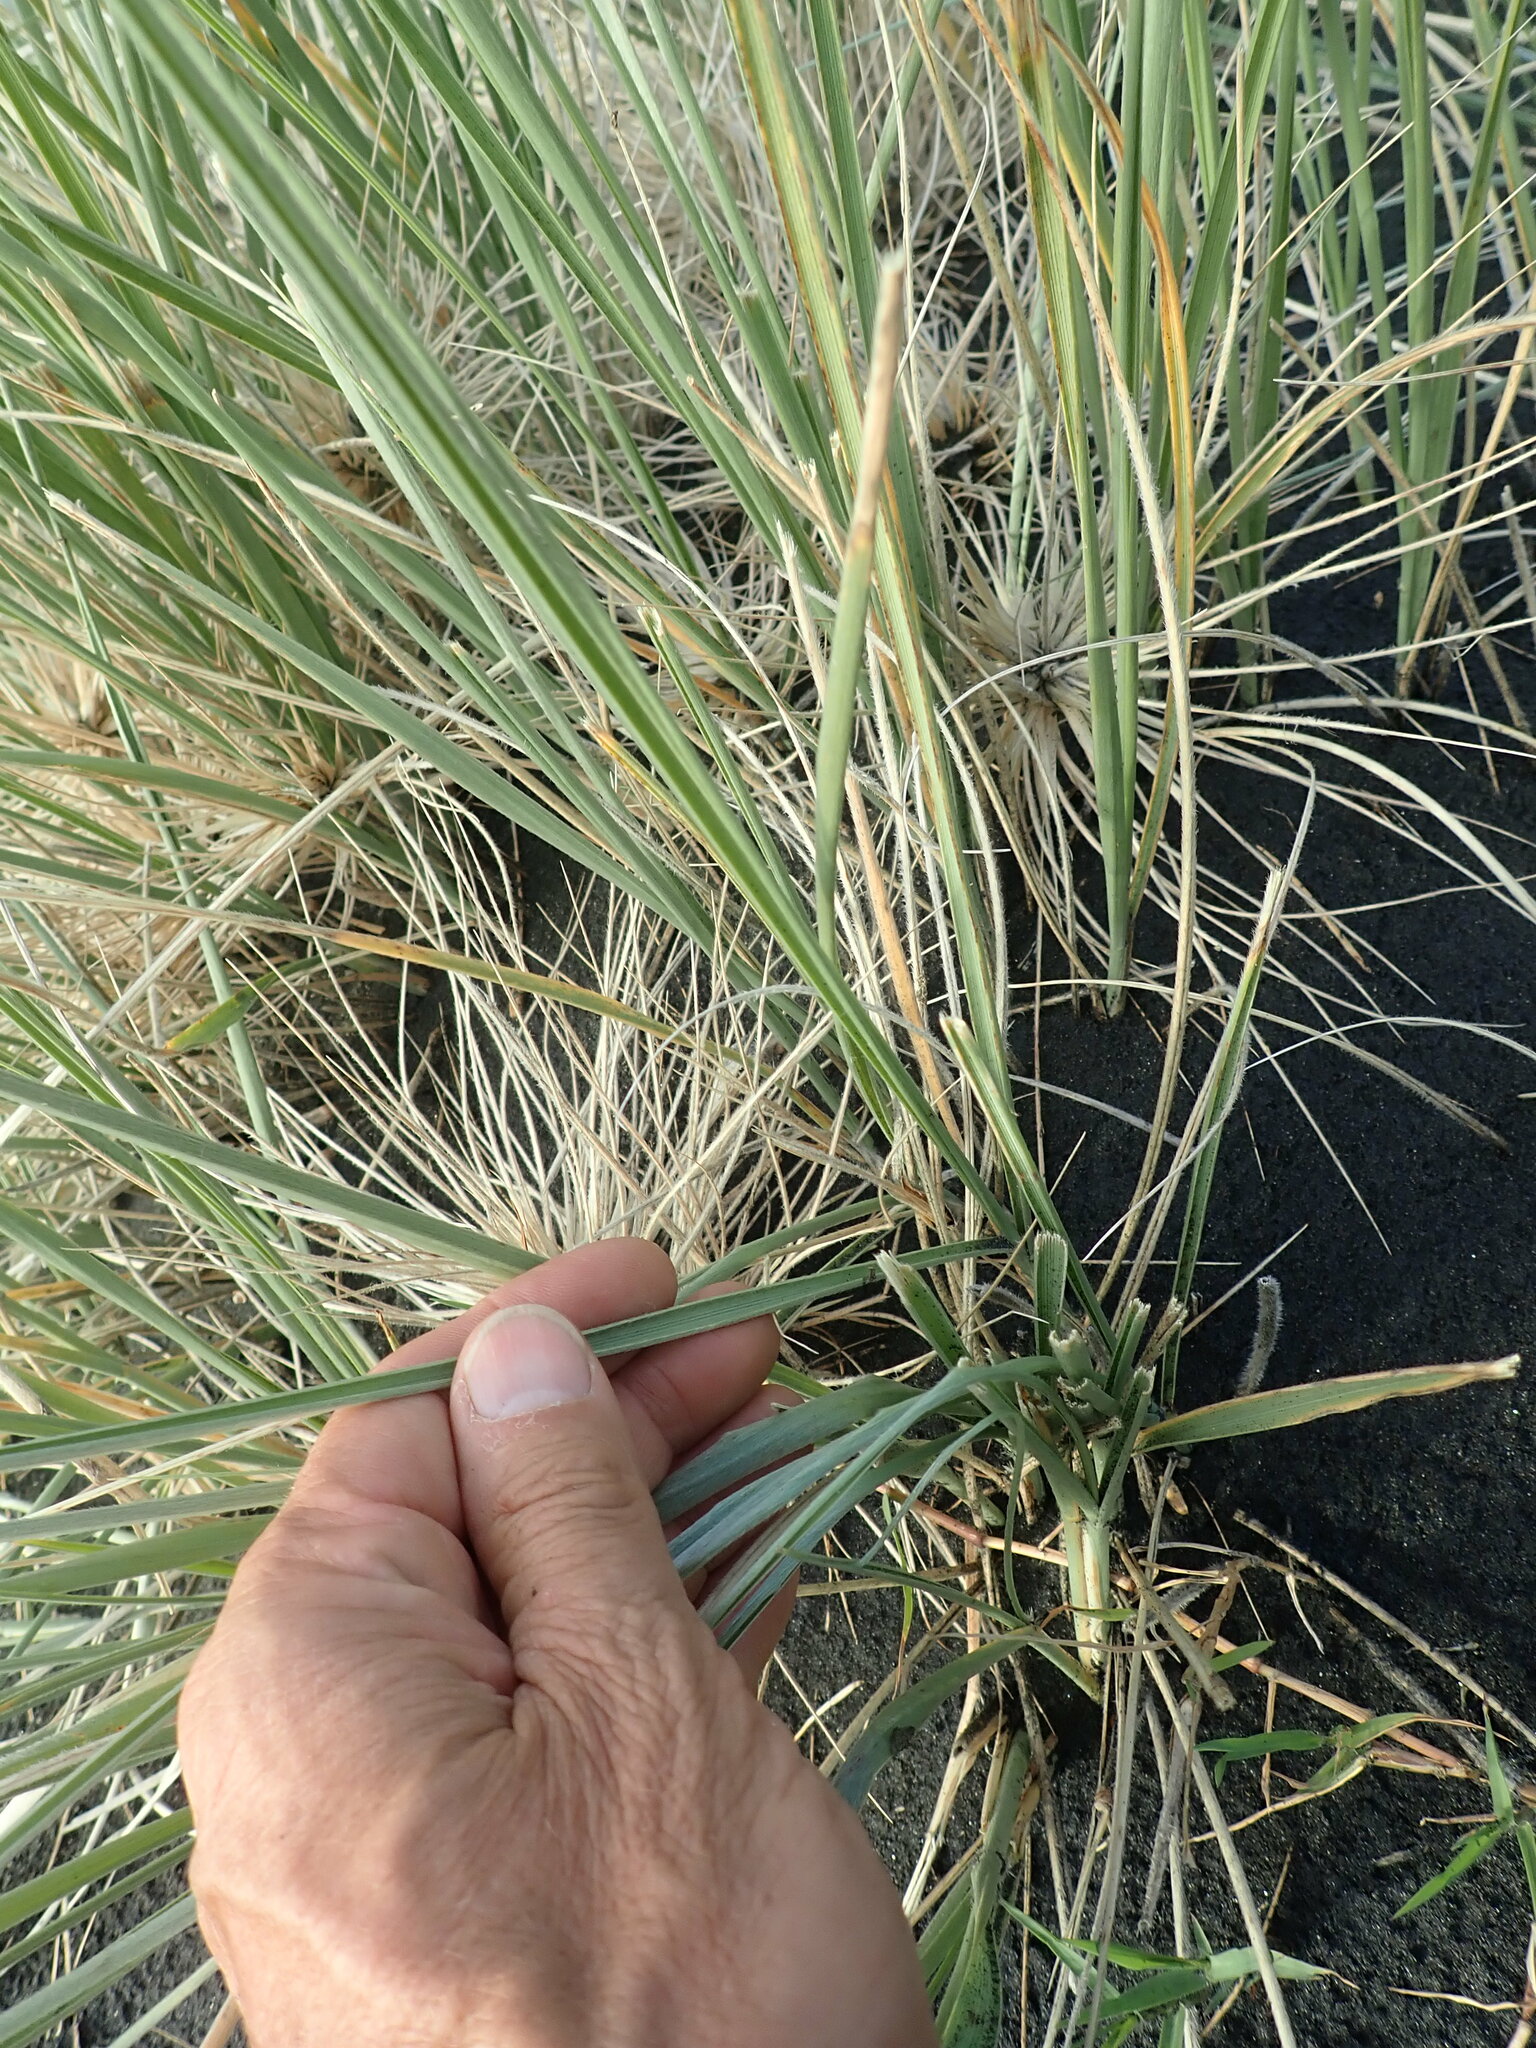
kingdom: Plantae
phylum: Tracheophyta
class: Liliopsida
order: Poales
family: Poaceae
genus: Spinifex
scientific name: Spinifex sericeus
